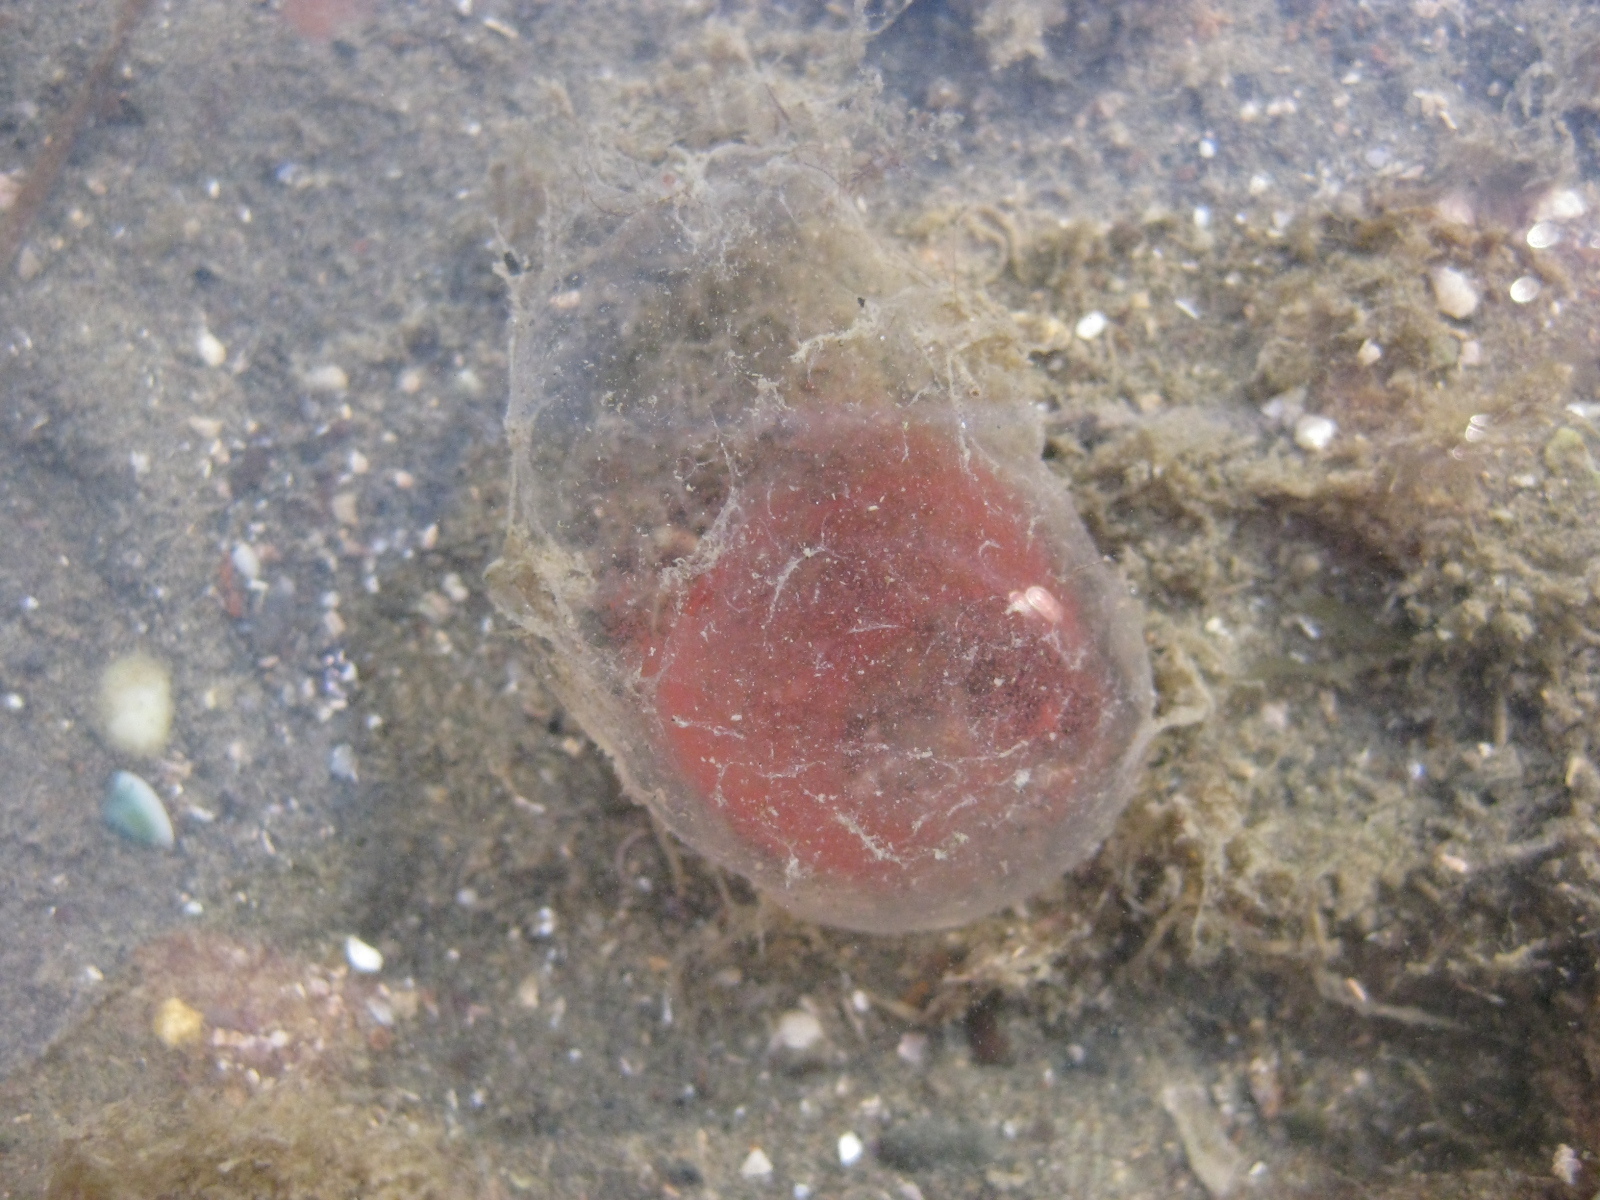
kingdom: Animalia
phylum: Mollusca
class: Gastropoda
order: Cephalaspidea
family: Bullidae
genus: Bulla
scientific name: Bulla quoyii
